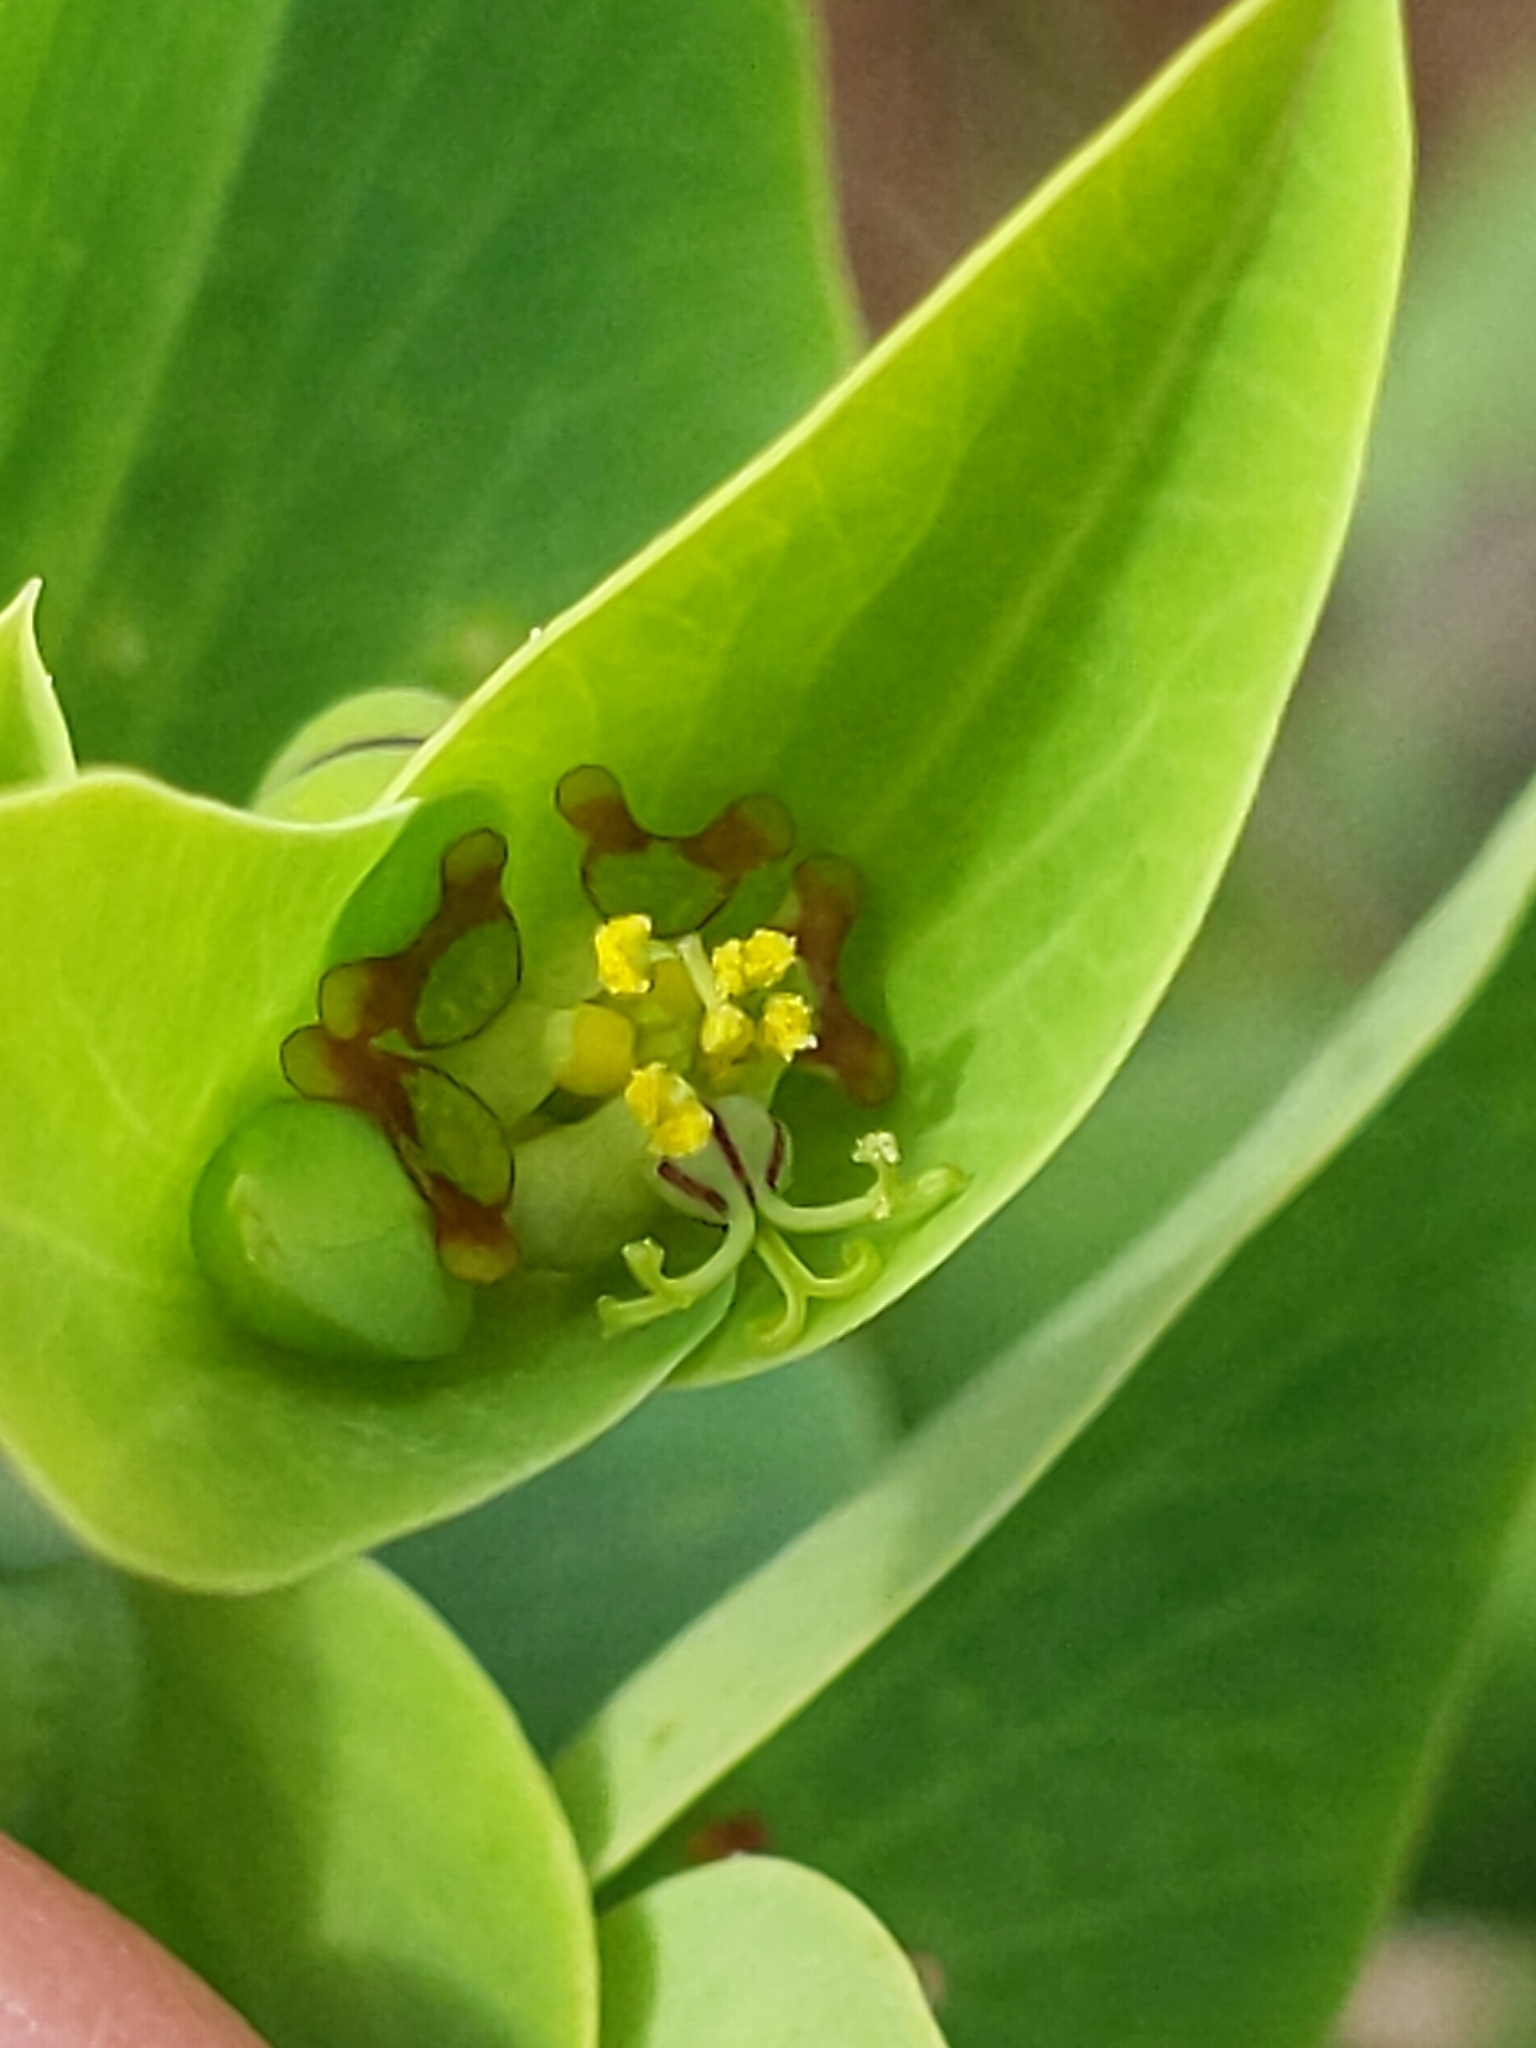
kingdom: Plantae
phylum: Tracheophyta
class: Magnoliopsida
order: Malpighiales
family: Euphorbiaceae
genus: Euphorbia
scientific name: Euphorbia lathyris
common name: Caper spurge
